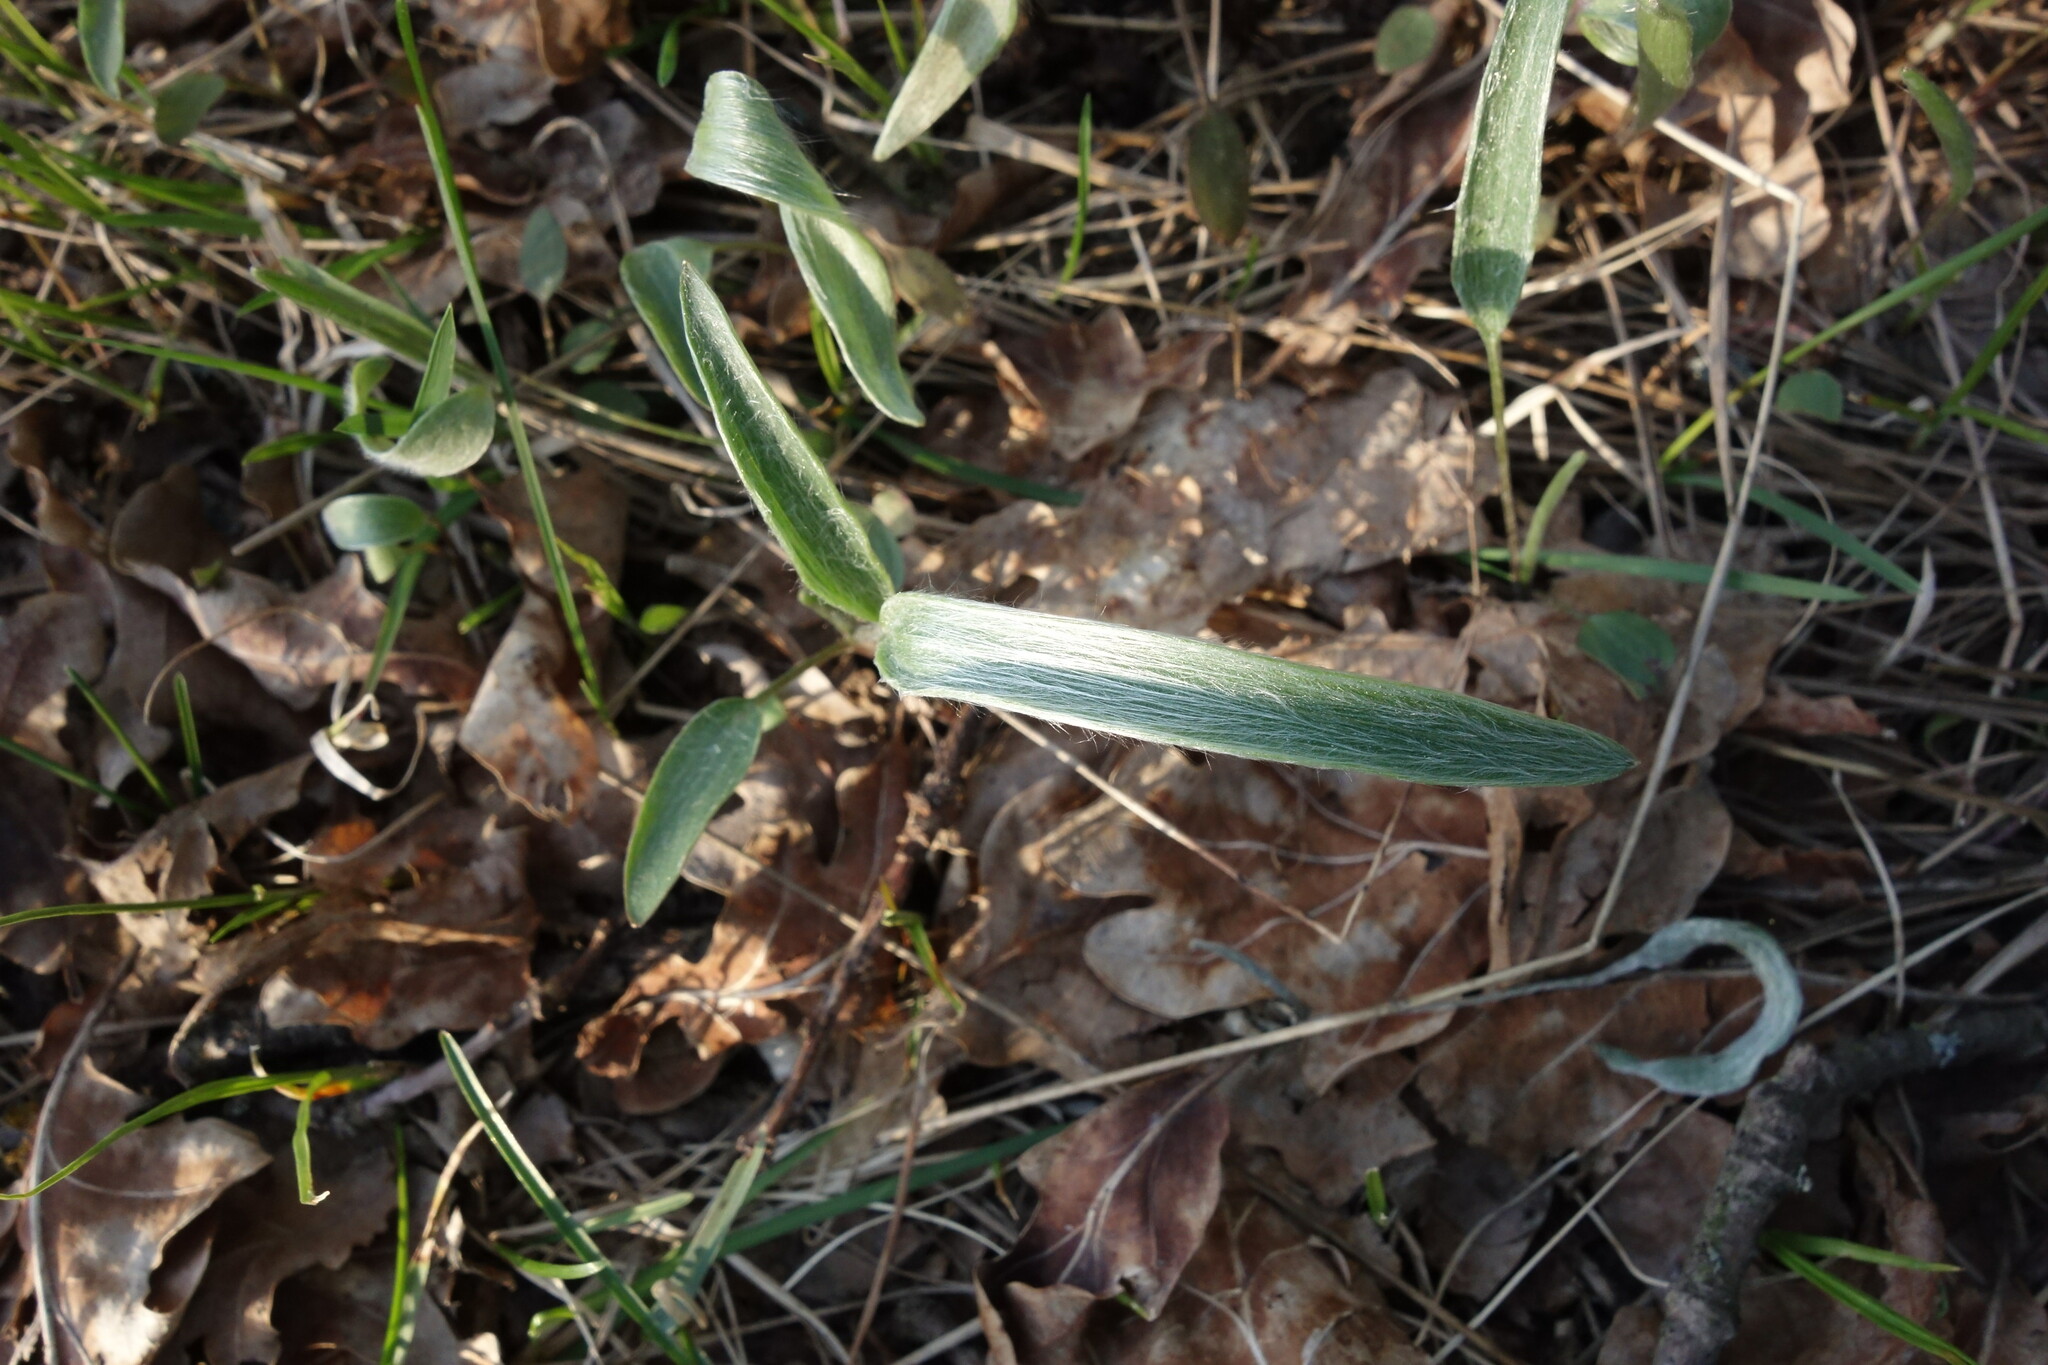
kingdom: Plantae
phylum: Tracheophyta
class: Magnoliopsida
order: Ranunculales
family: Ranunculaceae
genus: Ranunculus
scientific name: Ranunculus illyricus
